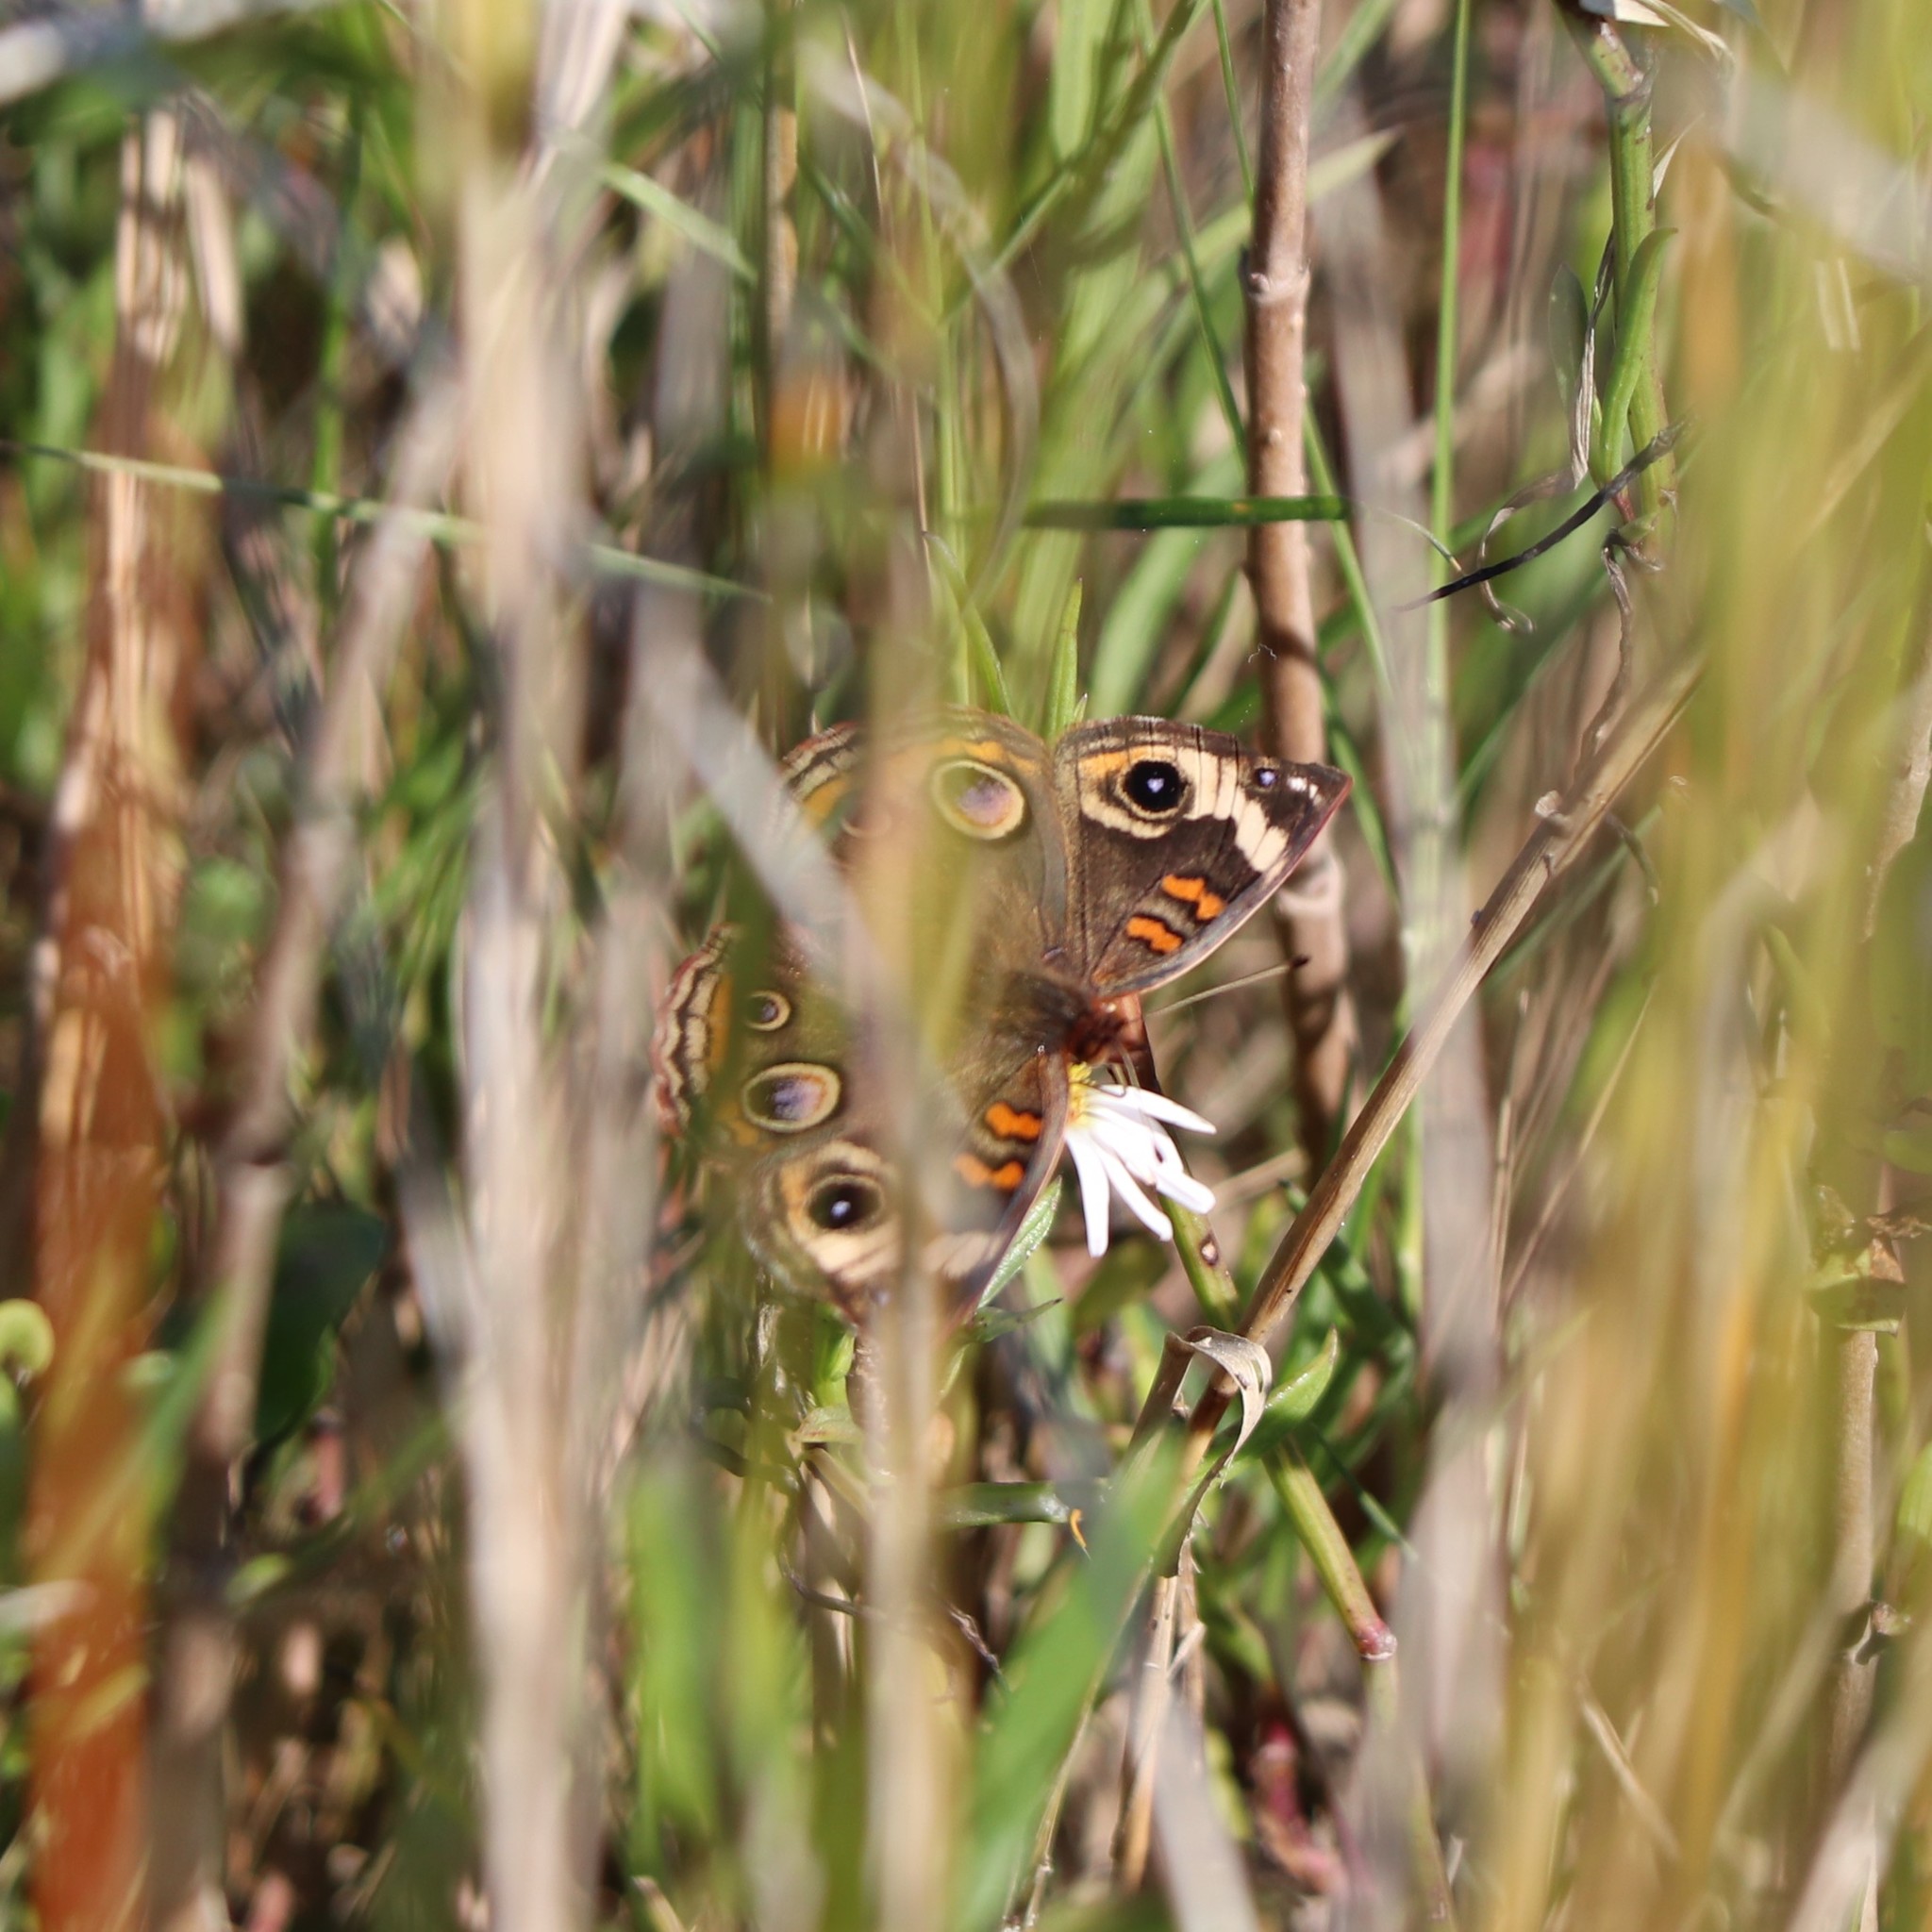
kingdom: Animalia
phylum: Arthropoda
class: Insecta
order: Lepidoptera
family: Nymphalidae
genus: Junonia
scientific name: Junonia coenia
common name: Common buckeye
